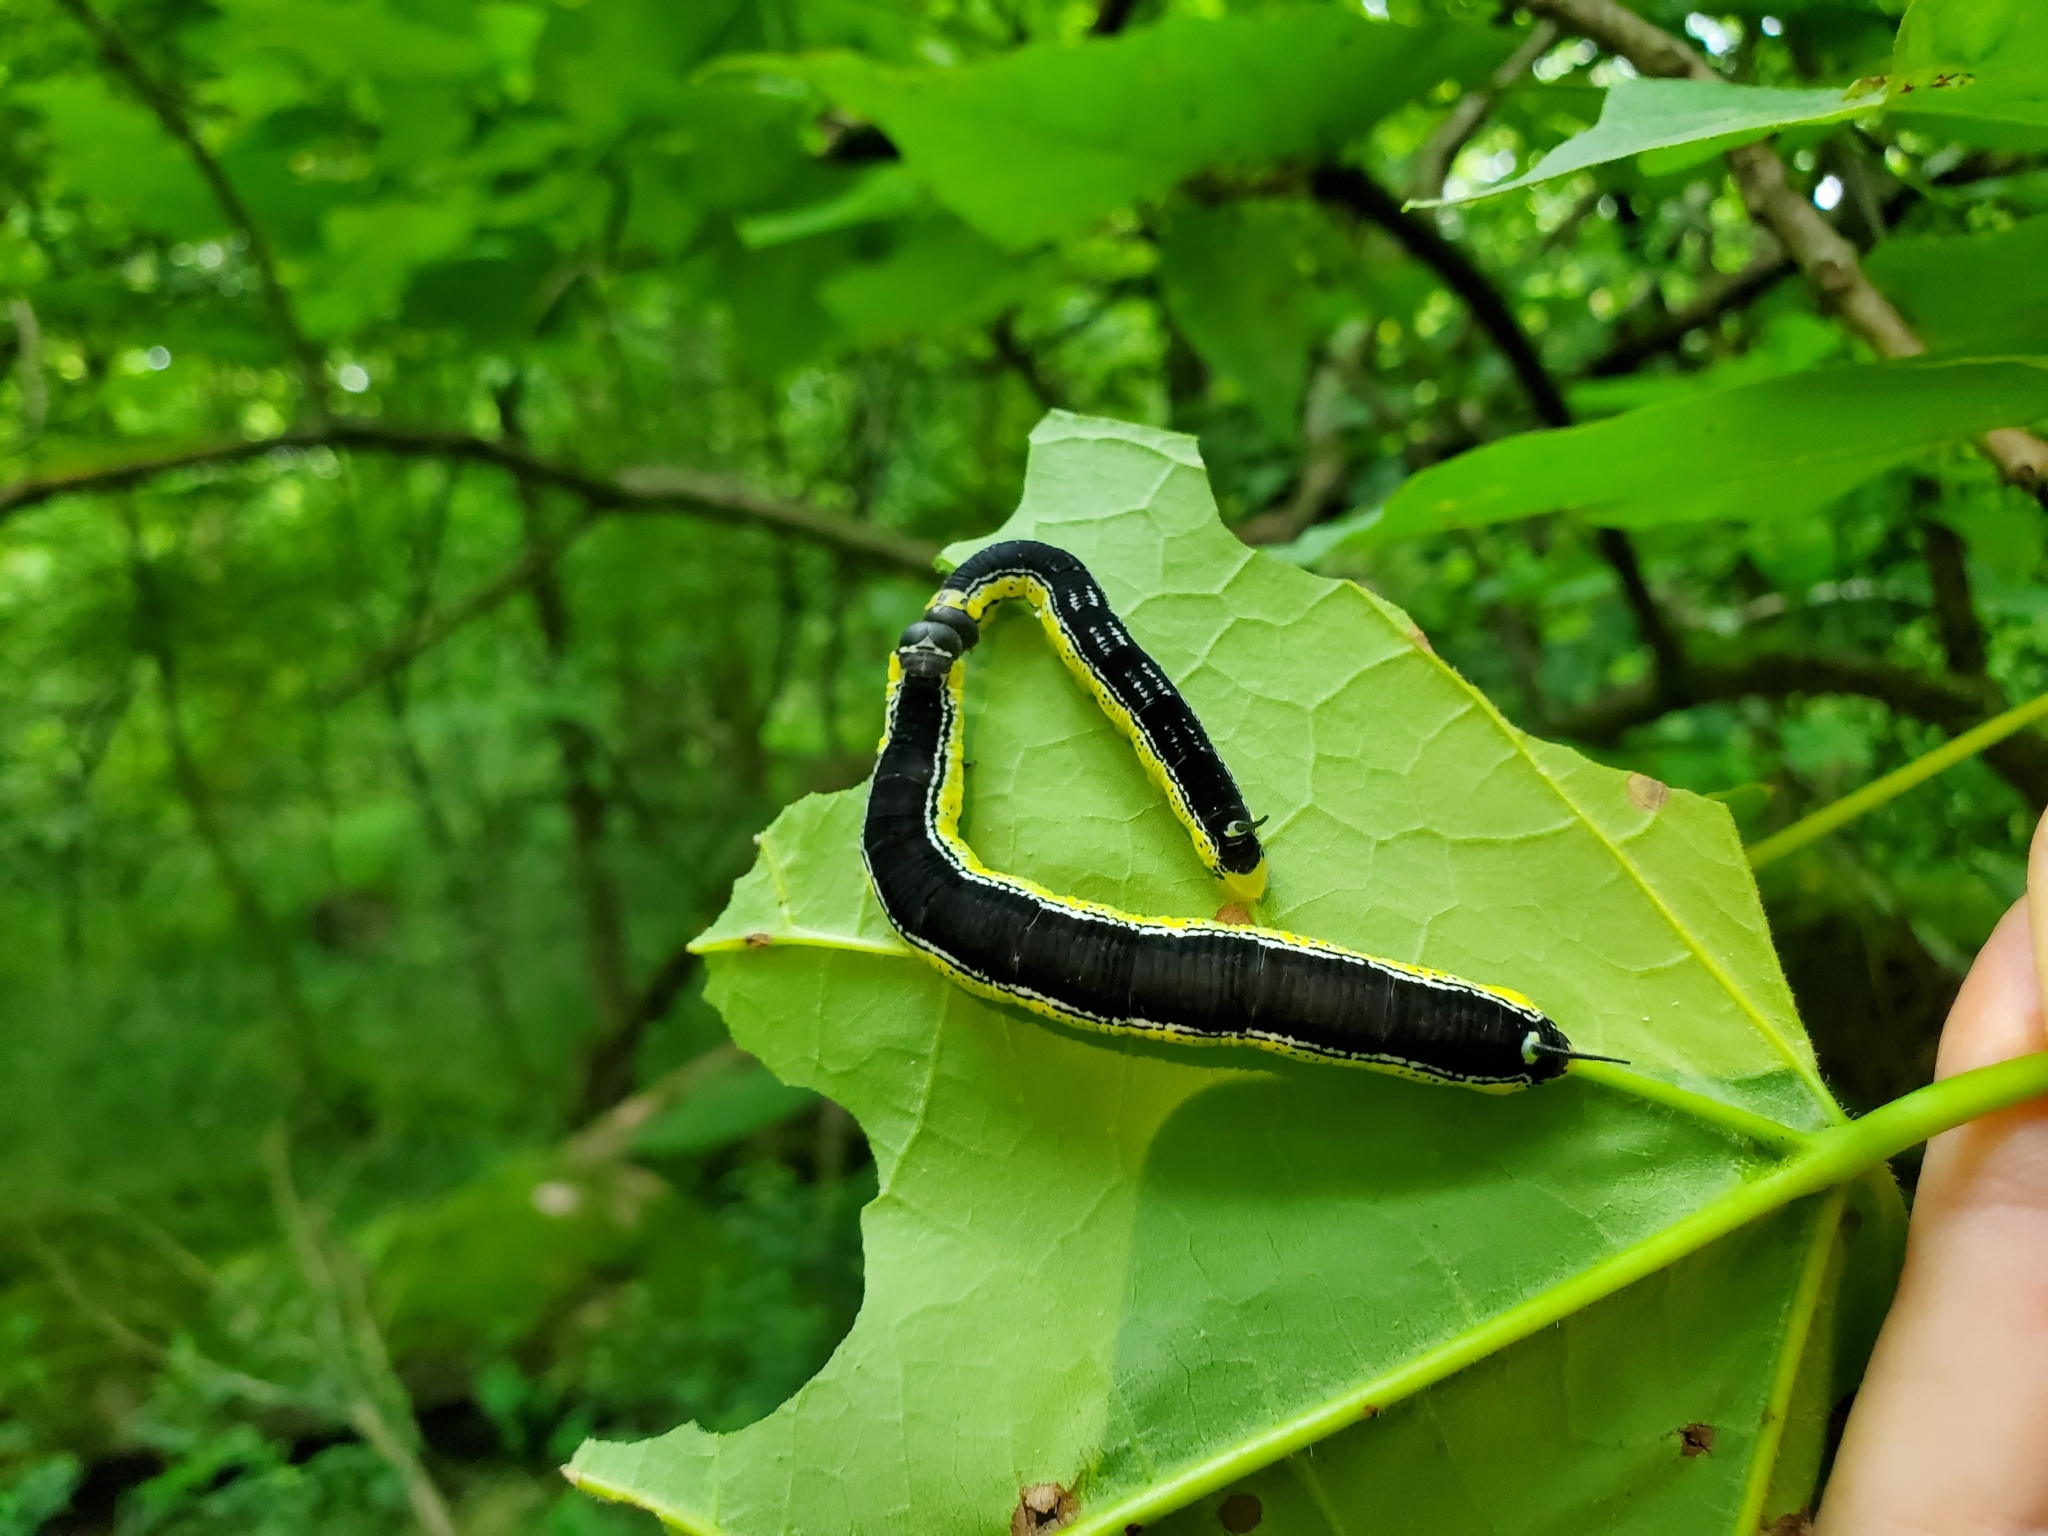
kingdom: Animalia
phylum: Arthropoda
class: Insecta
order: Lepidoptera
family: Sphingidae
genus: Ceratomia
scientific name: Ceratomia catalpae
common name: Catalpa hornworm
